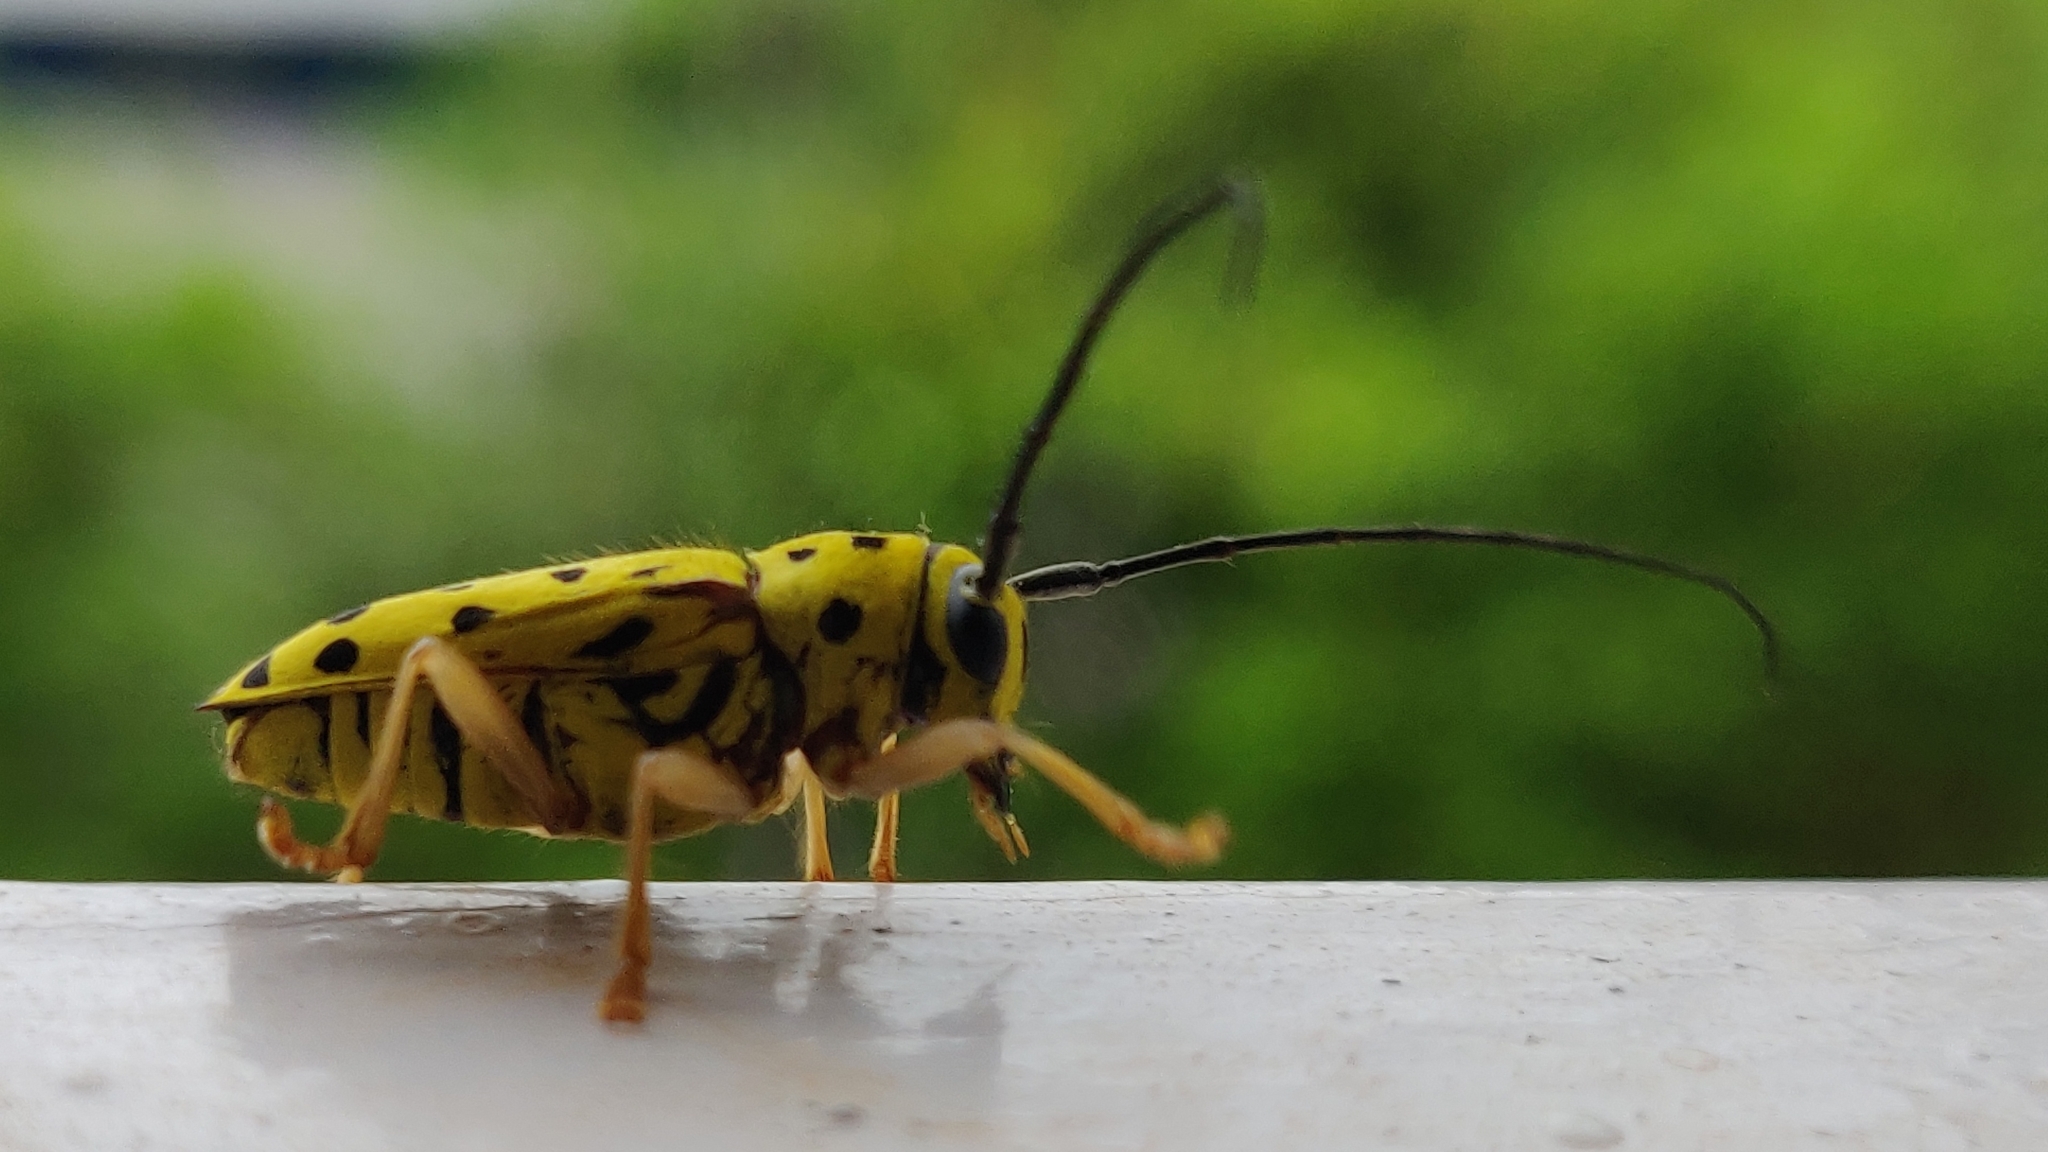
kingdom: Animalia
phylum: Arthropoda
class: Insecta
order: Coleoptera
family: Cerambycidae
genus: Glenea
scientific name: Glenea multiguttata
